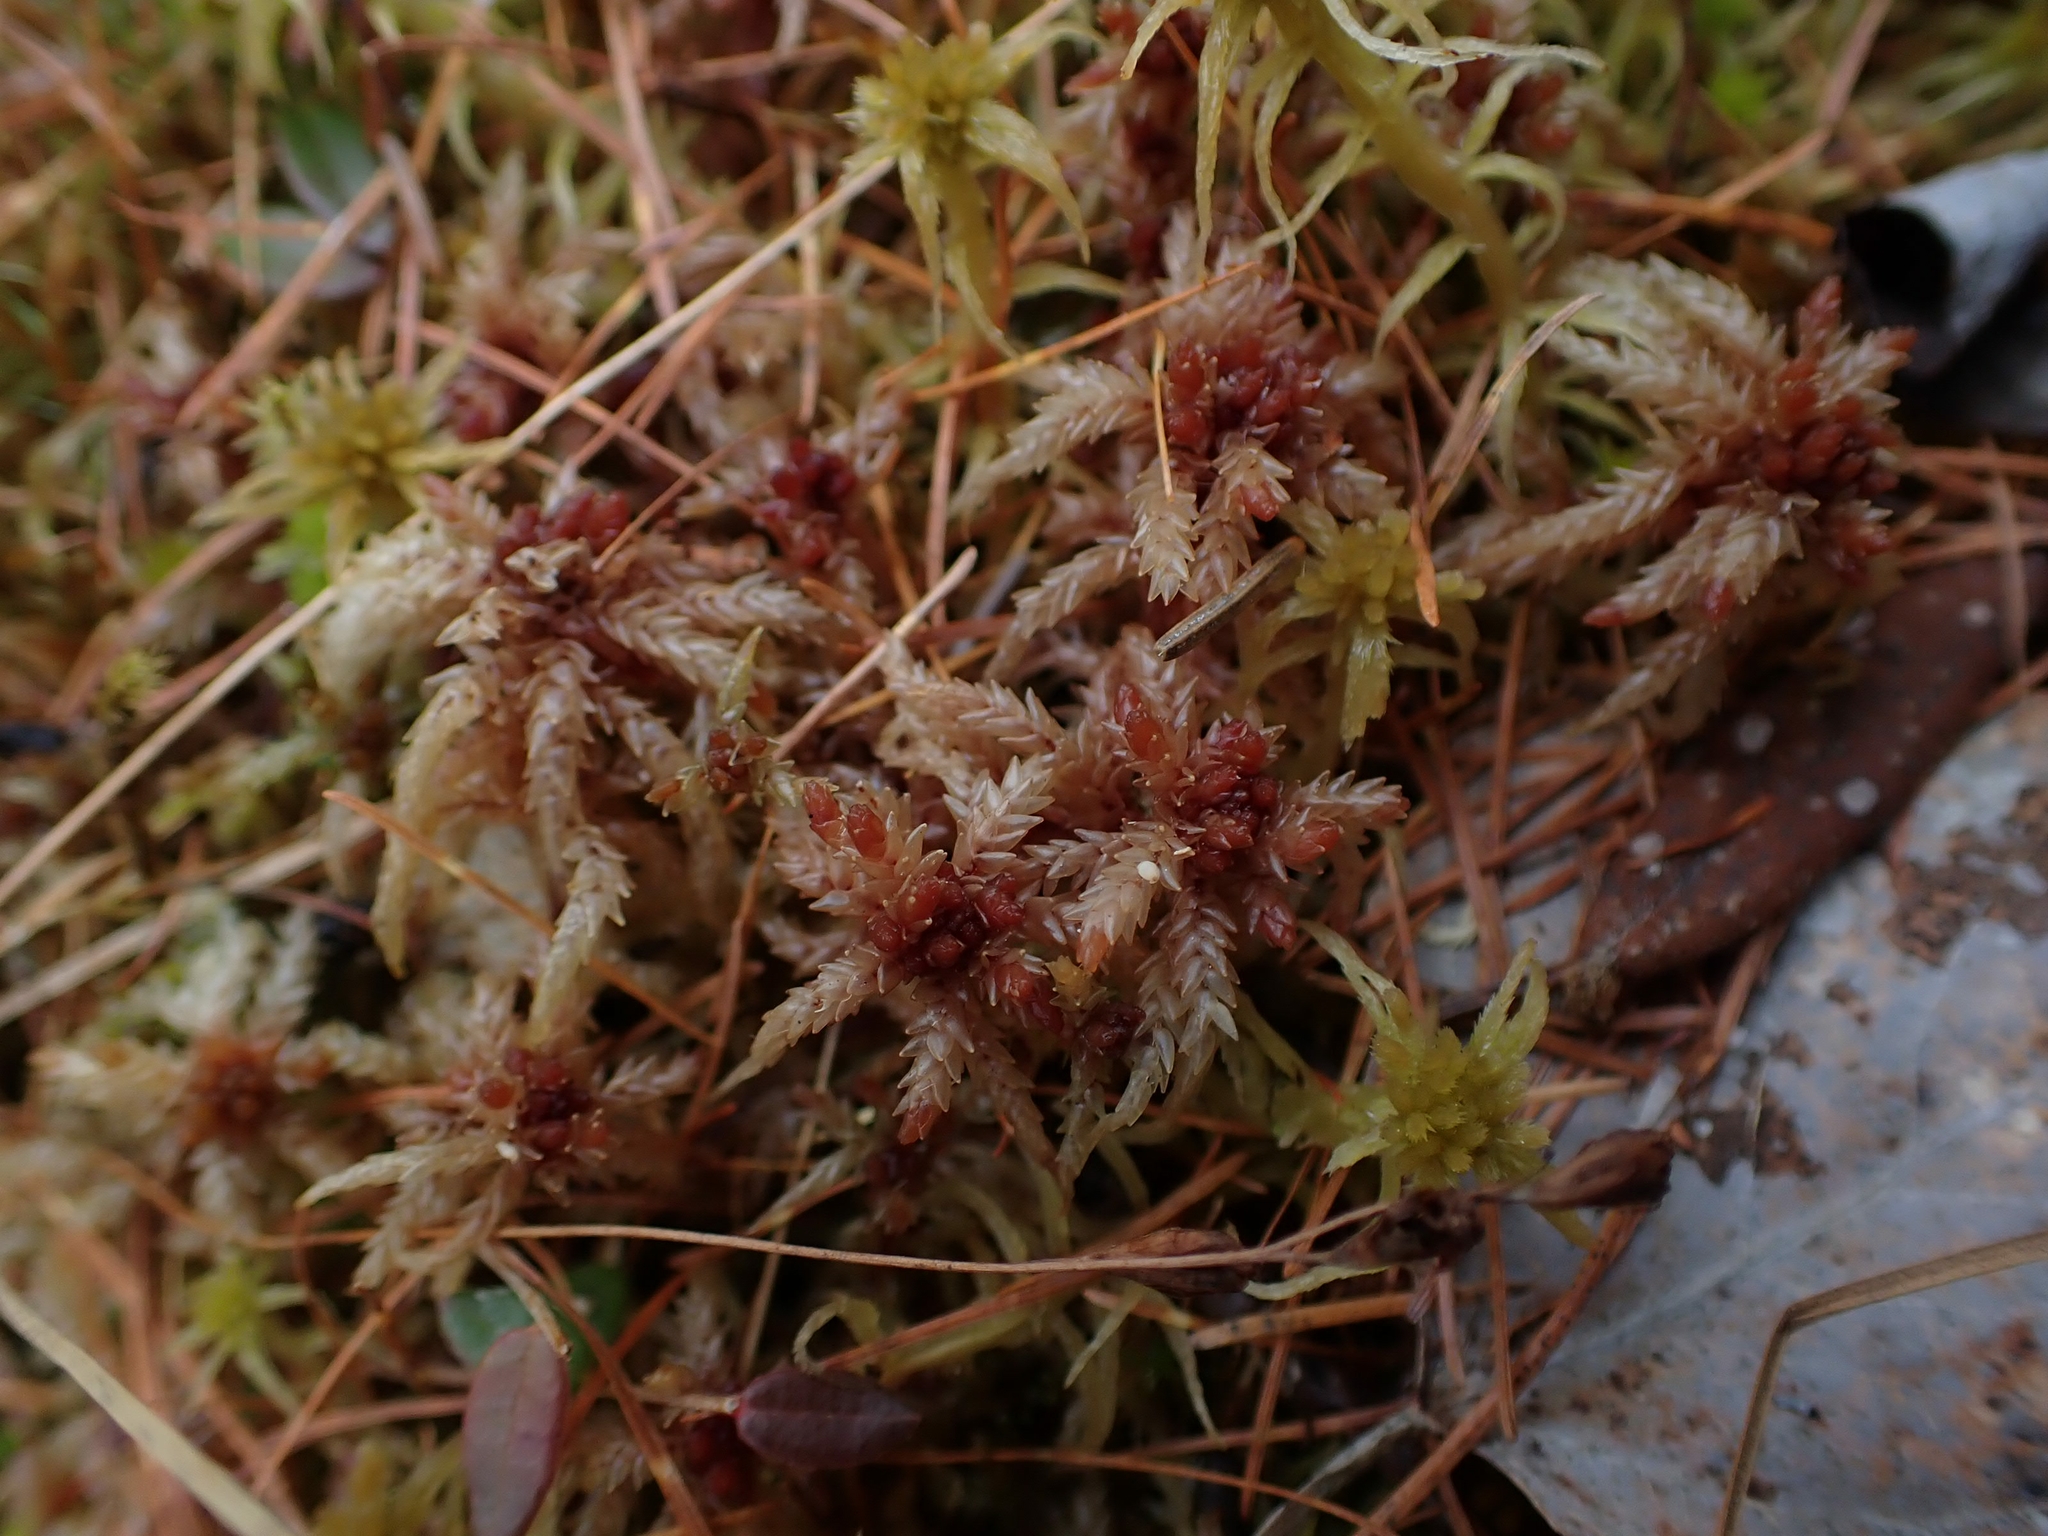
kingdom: Plantae
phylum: Bryophyta
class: Sphagnopsida
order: Sphagnales
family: Sphagnaceae
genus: Sphagnum
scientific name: Sphagnum divinum
